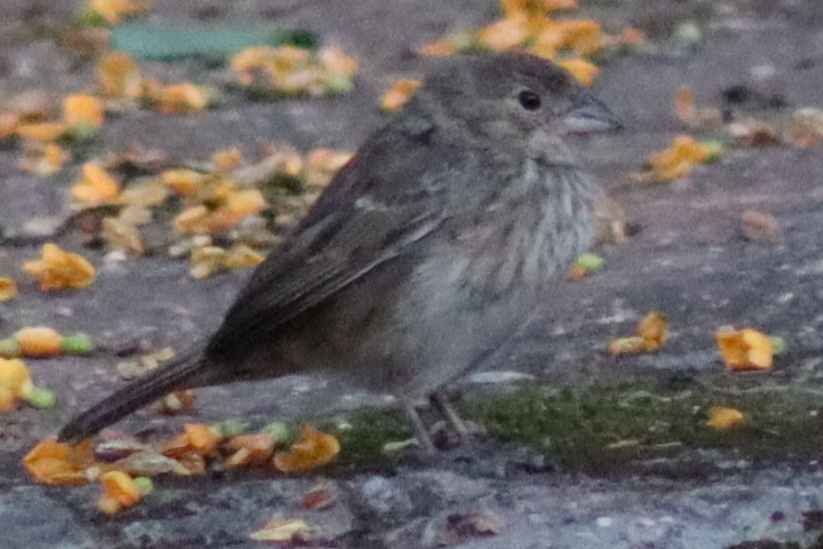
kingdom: Animalia
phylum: Chordata
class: Aves
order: Passeriformes
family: Thraupidae
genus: Volatinia
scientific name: Volatinia jacarina
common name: Blue-black grassquit
